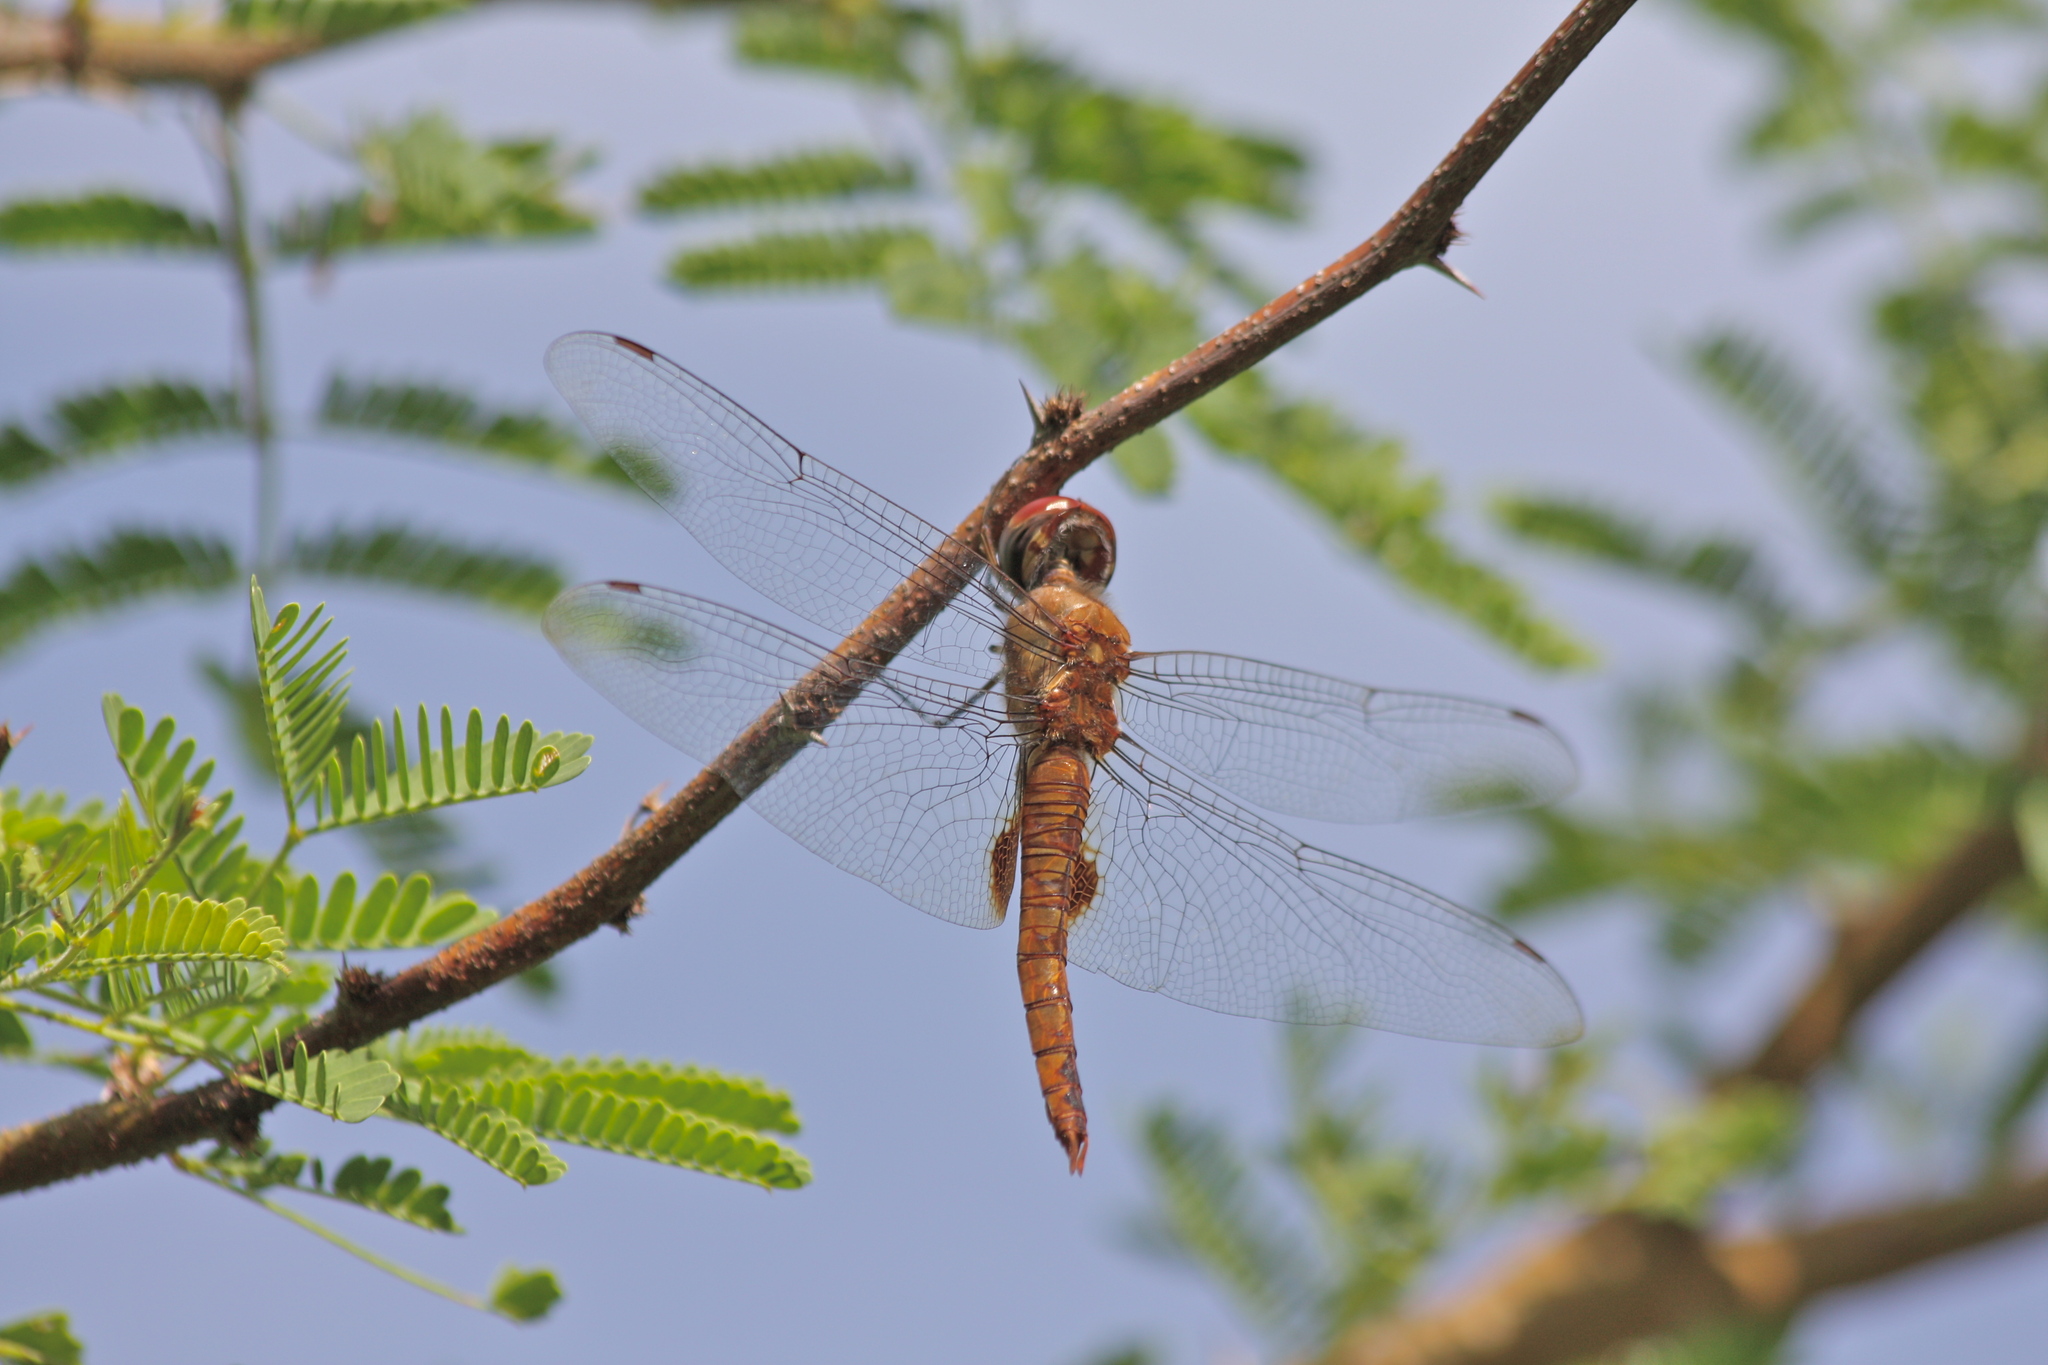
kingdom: Animalia
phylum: Arthropoda
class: Insecta
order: Odonata
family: Libellulidae
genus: Pantala
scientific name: Pantala hymenaea
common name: Spot-winged glider
